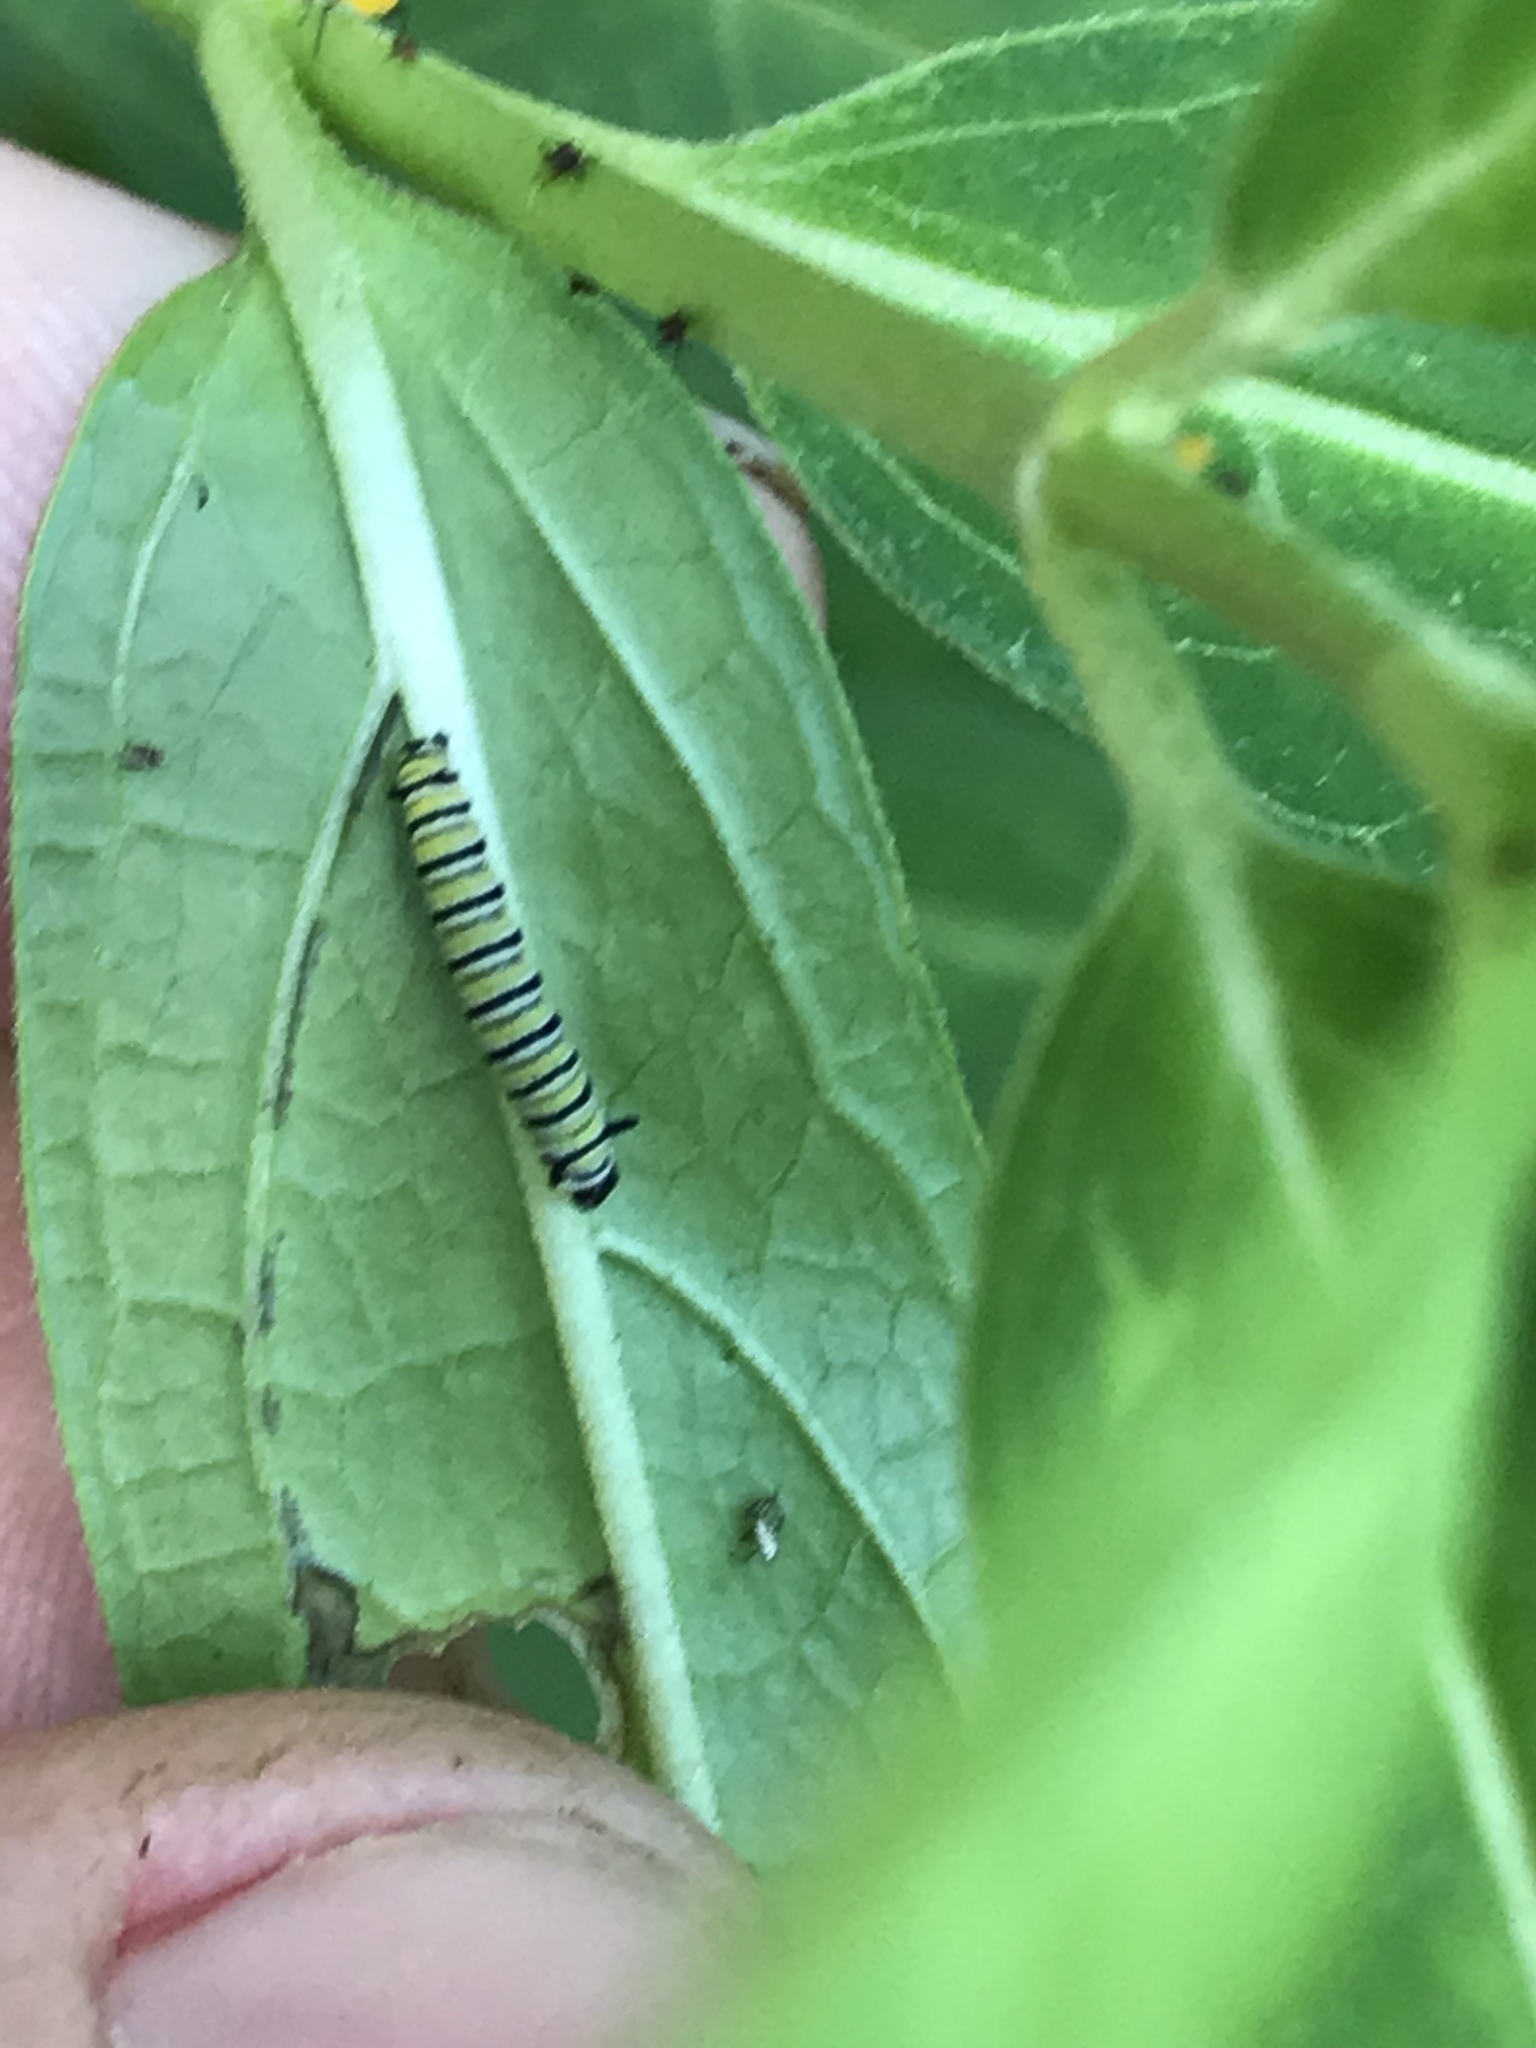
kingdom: Animalia
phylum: Arthropoda
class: Insecta
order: Lepidoptera
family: Nymphalidae
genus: Danaus
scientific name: Danaus plexippus
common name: Monarch
